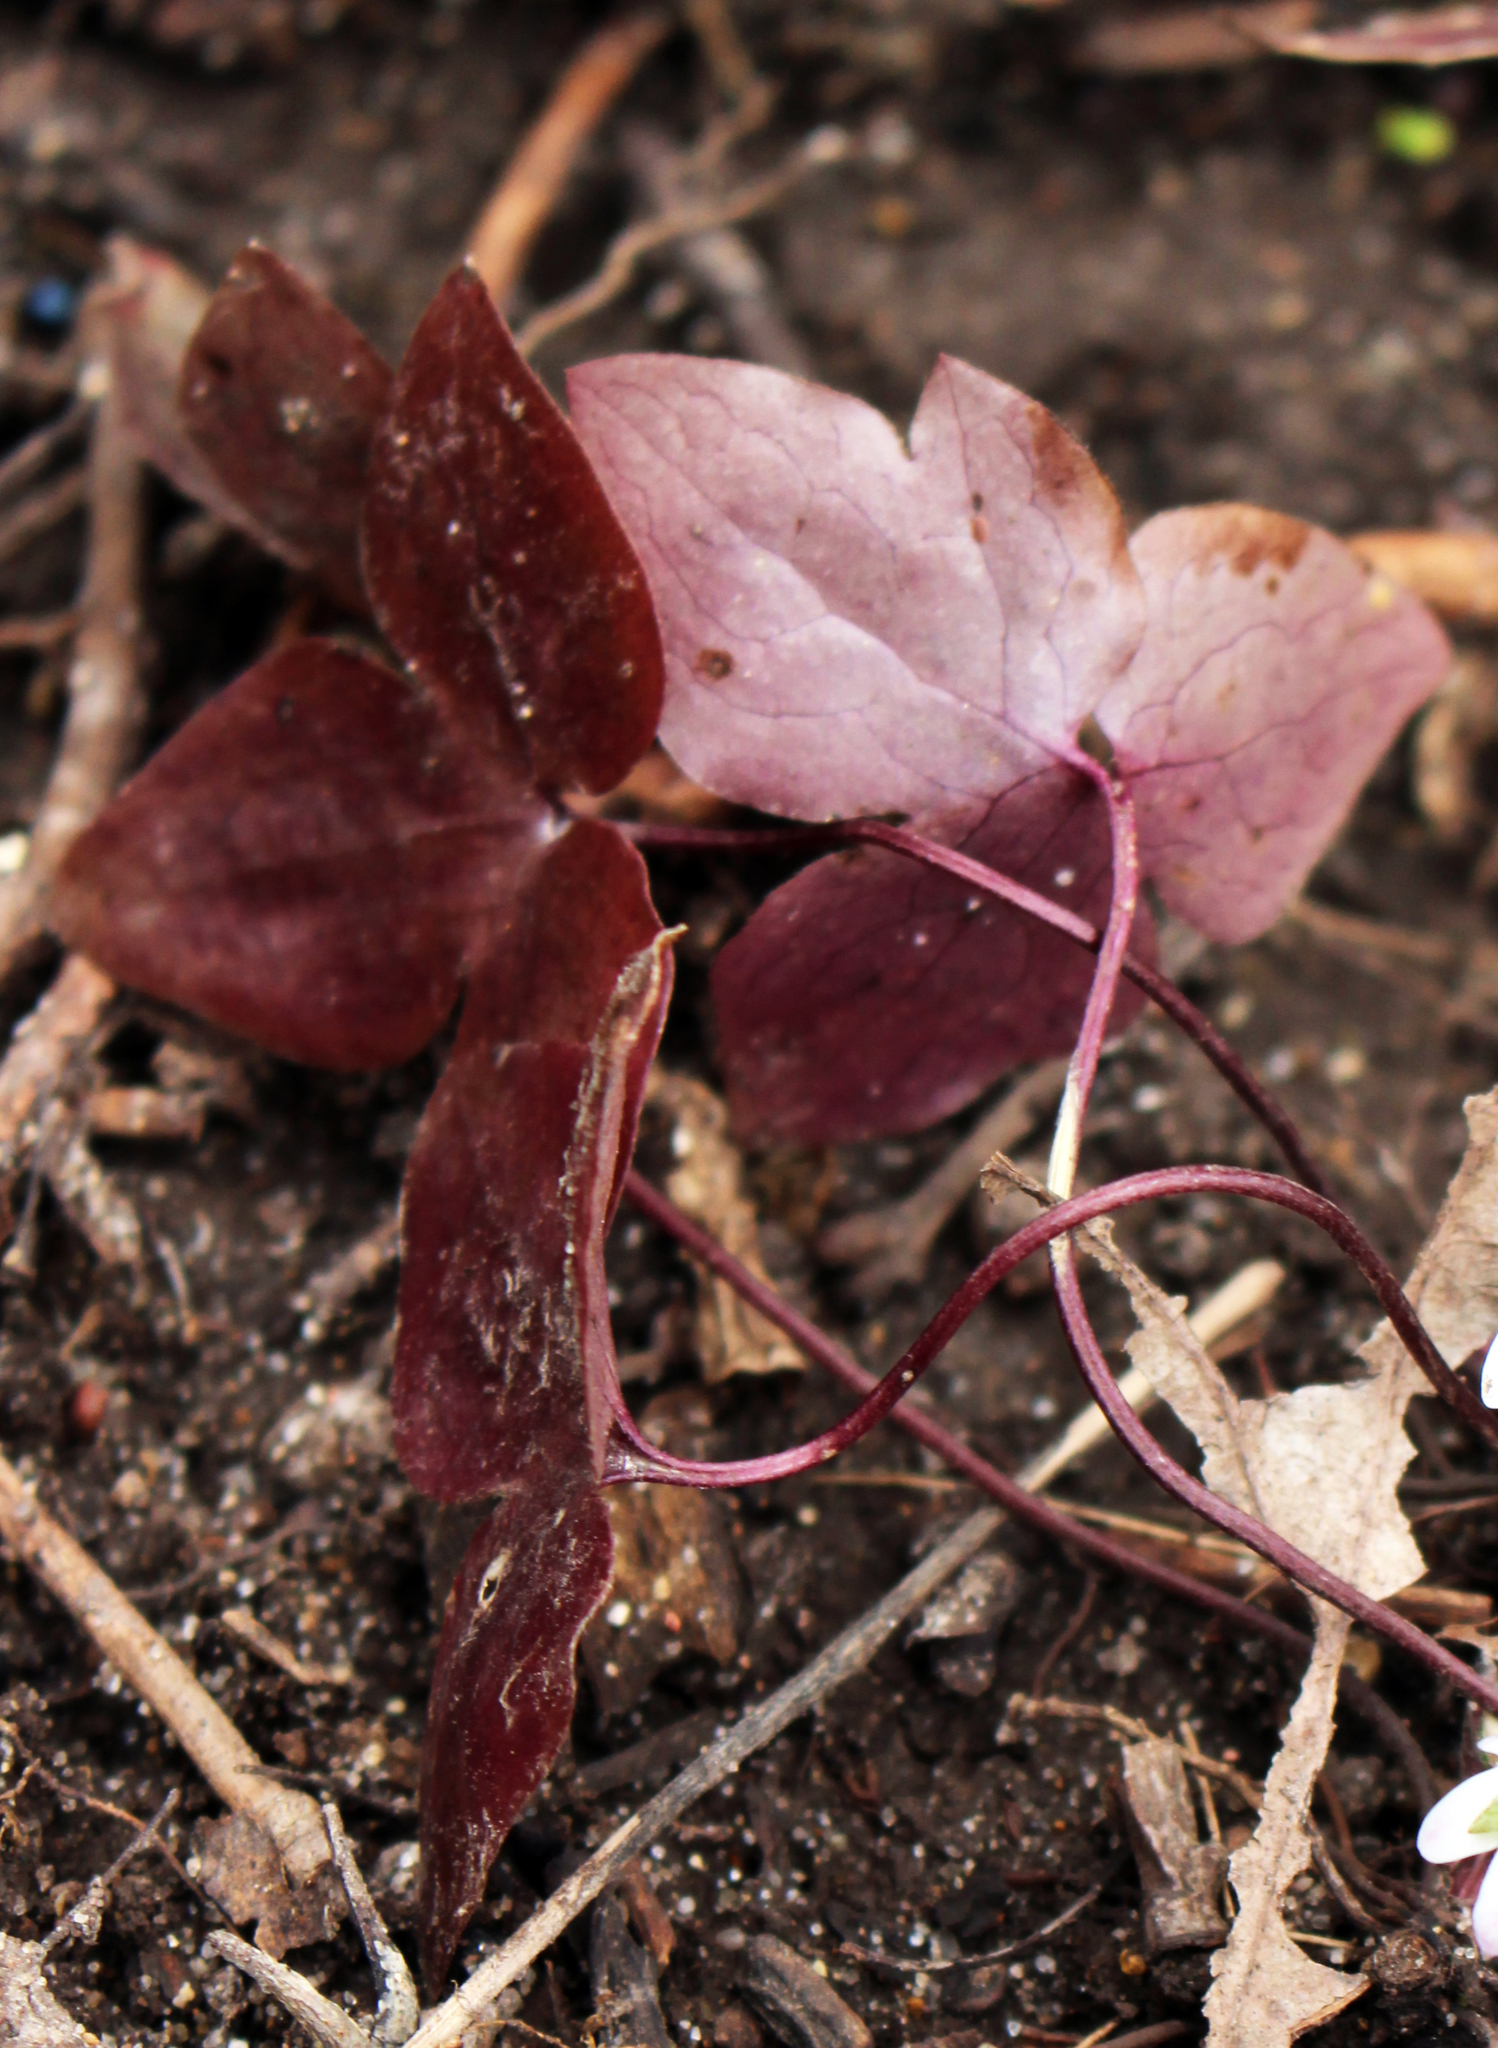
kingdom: Plantae
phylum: Tracheophyta
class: Magnoliopsida
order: Ranunculales
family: Ranunculaceae
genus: Hepatica
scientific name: Hepatica acutiloba
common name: Sharp-lobed hepatica
